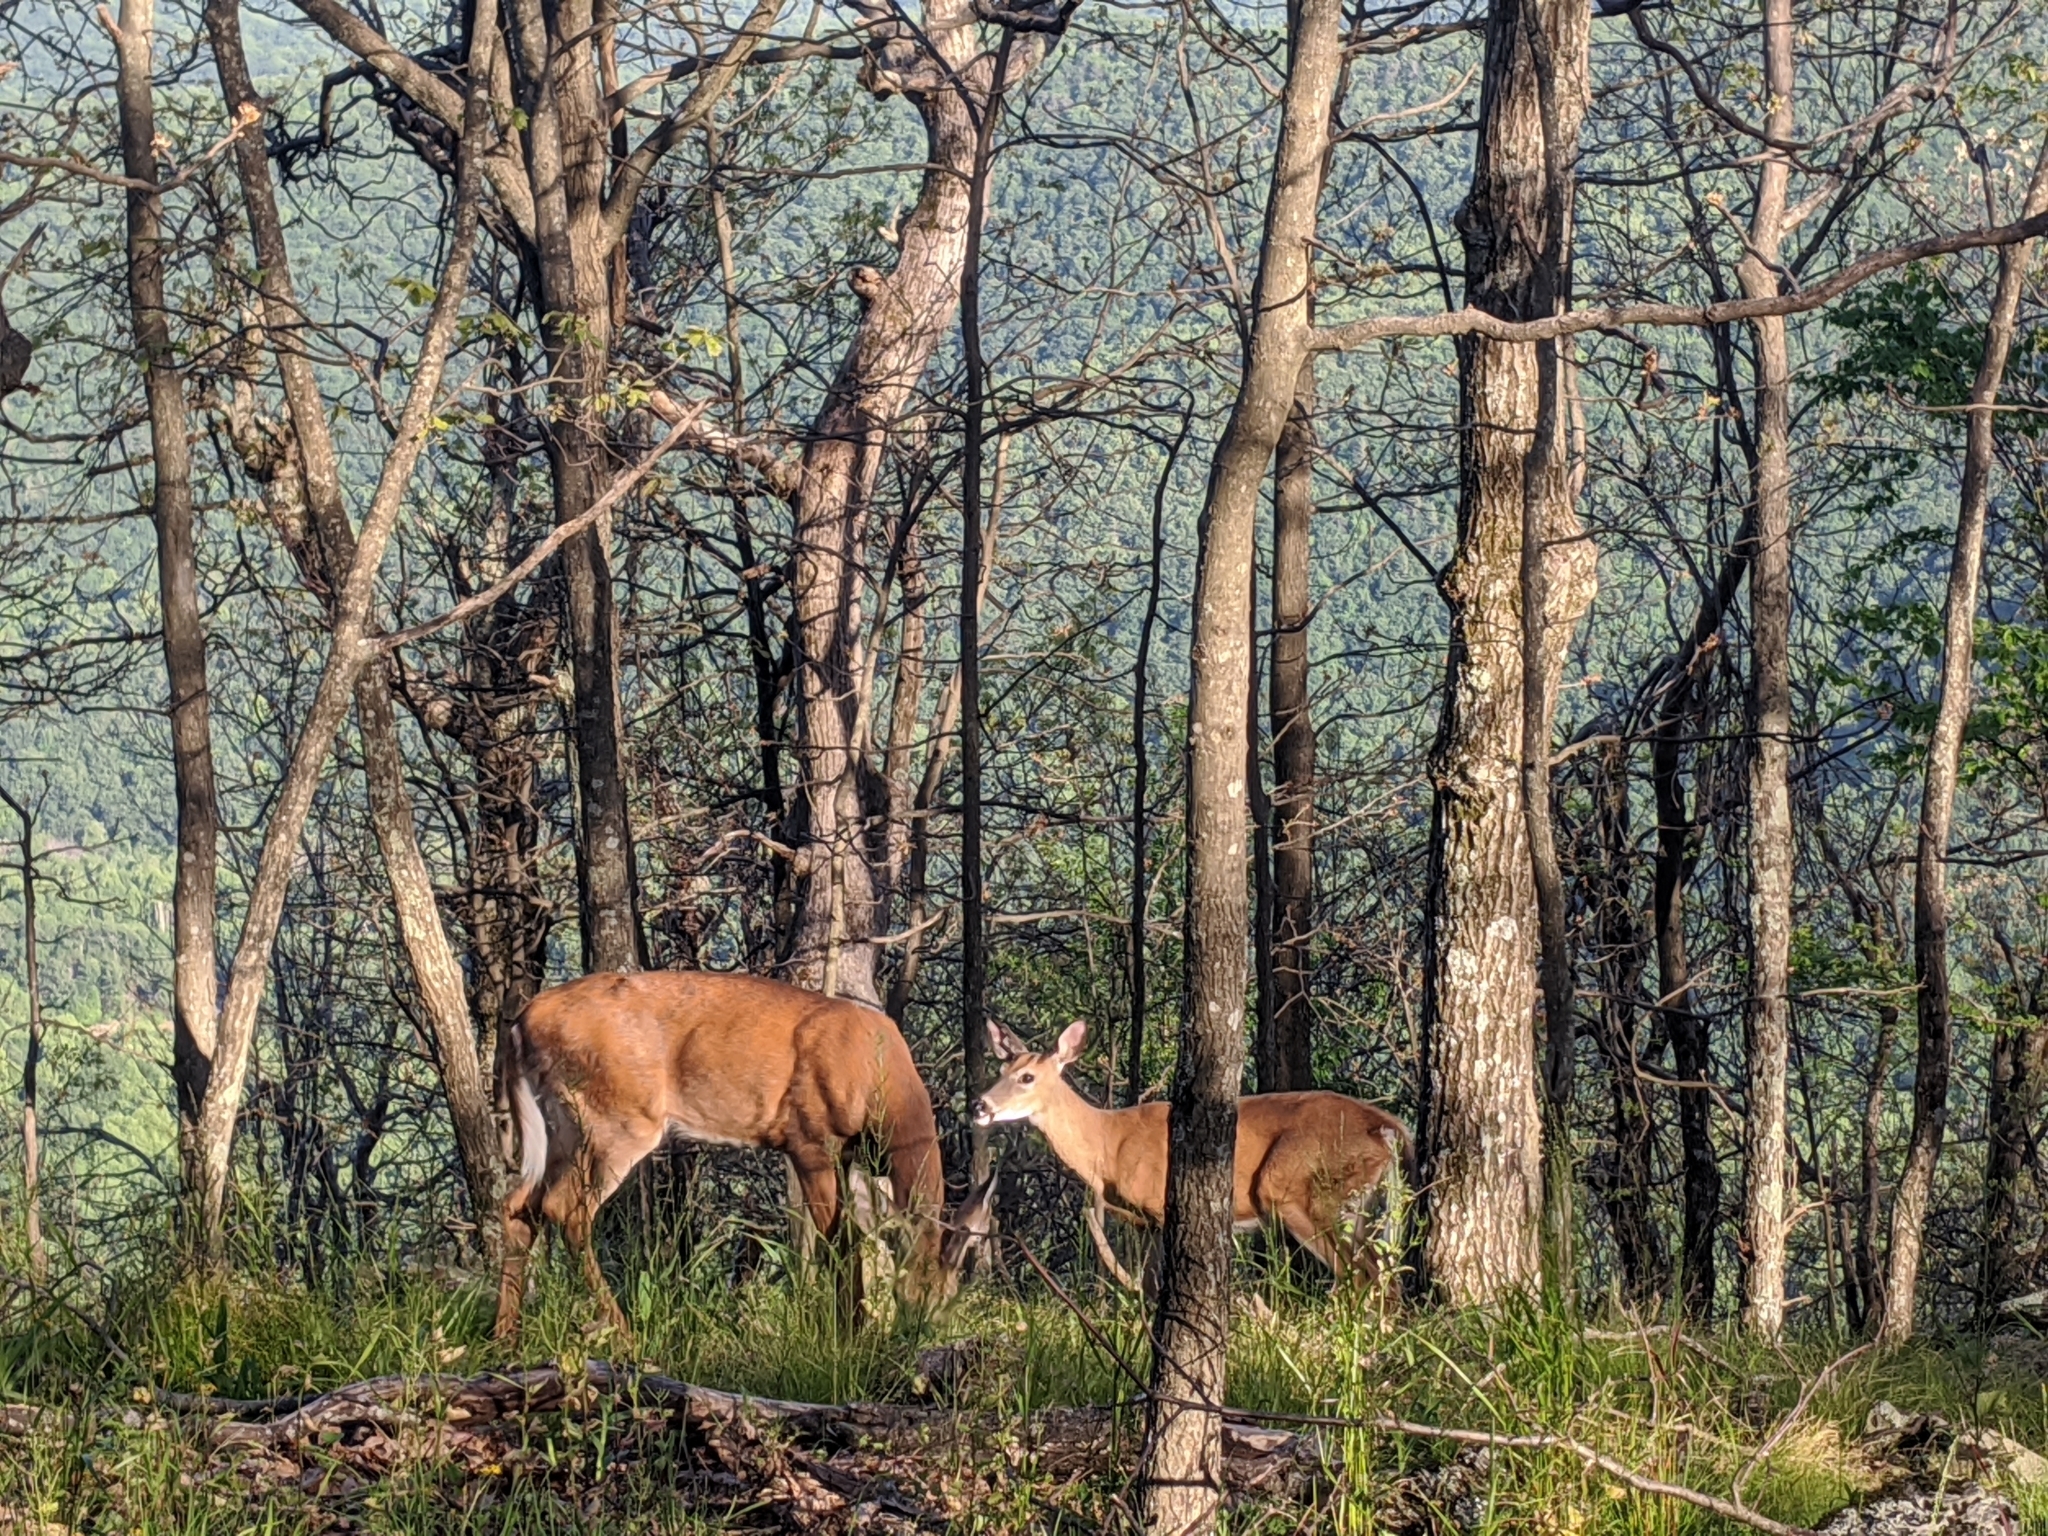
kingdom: Animalia
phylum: Chordata
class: Mammalia
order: Artiodactyla
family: Cervidae
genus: Odocoileus
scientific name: Odocoileus virginianus
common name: White-tailed deer
